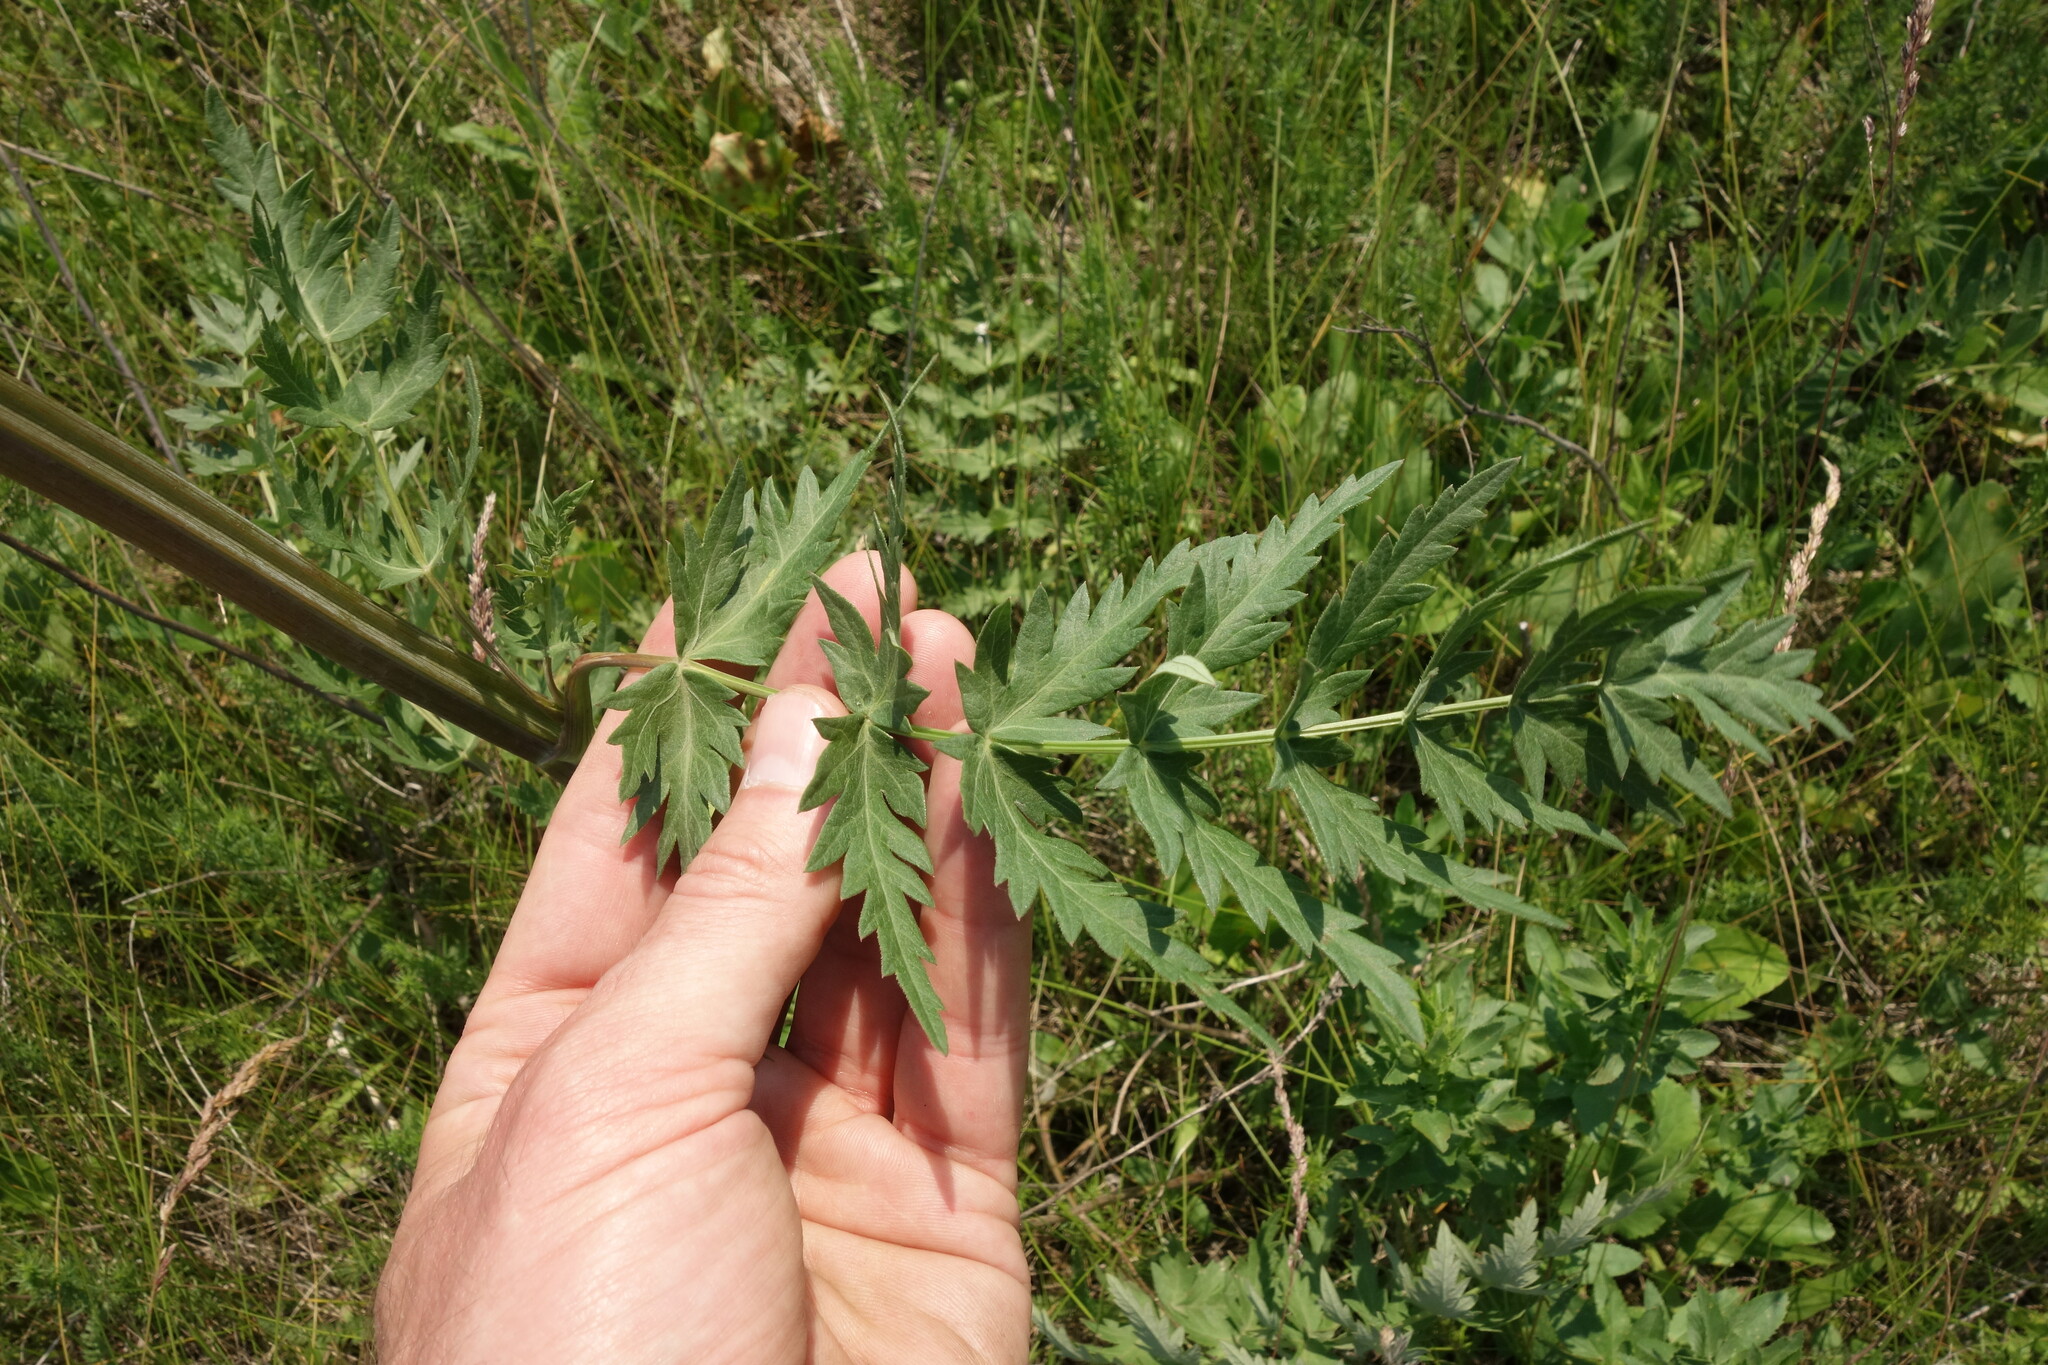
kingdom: Plantae
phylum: Tracheophyta
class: Magnoliopsida
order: Apiales
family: Apiaceae
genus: Seseli
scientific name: Seseli libanotis
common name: Mooncarrot
